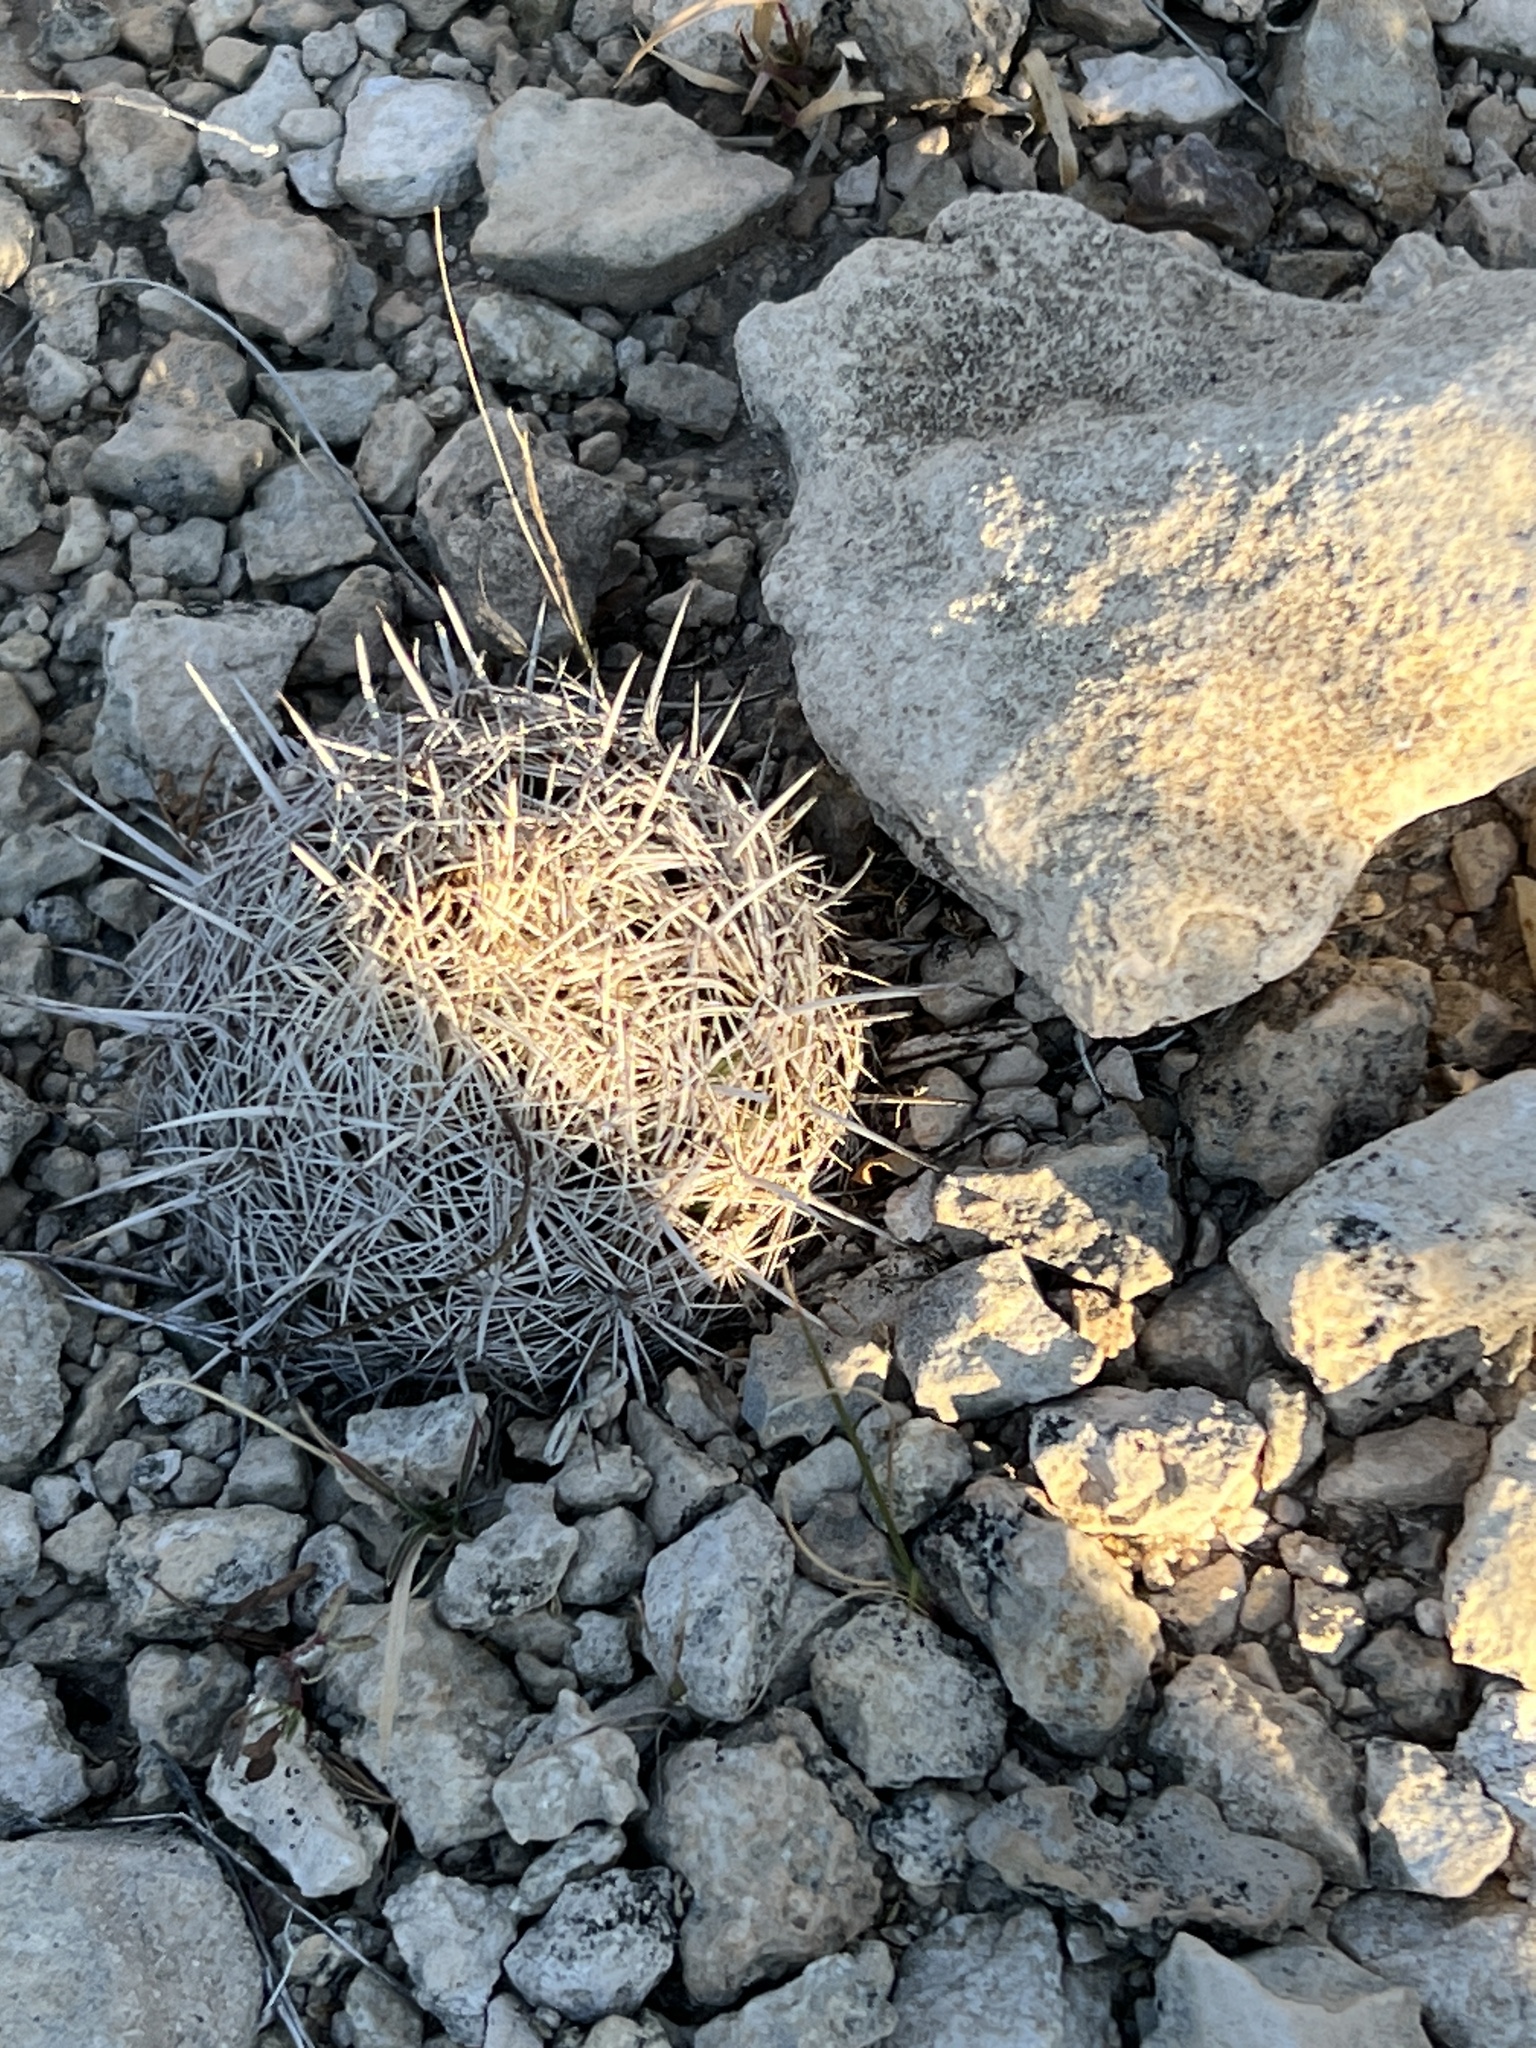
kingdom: Plantae
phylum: Tracheophyta
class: Magnoliopsida
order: Caryophyllales
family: Cactaceae
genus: Coryphantha
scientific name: Coryphantha echinus
